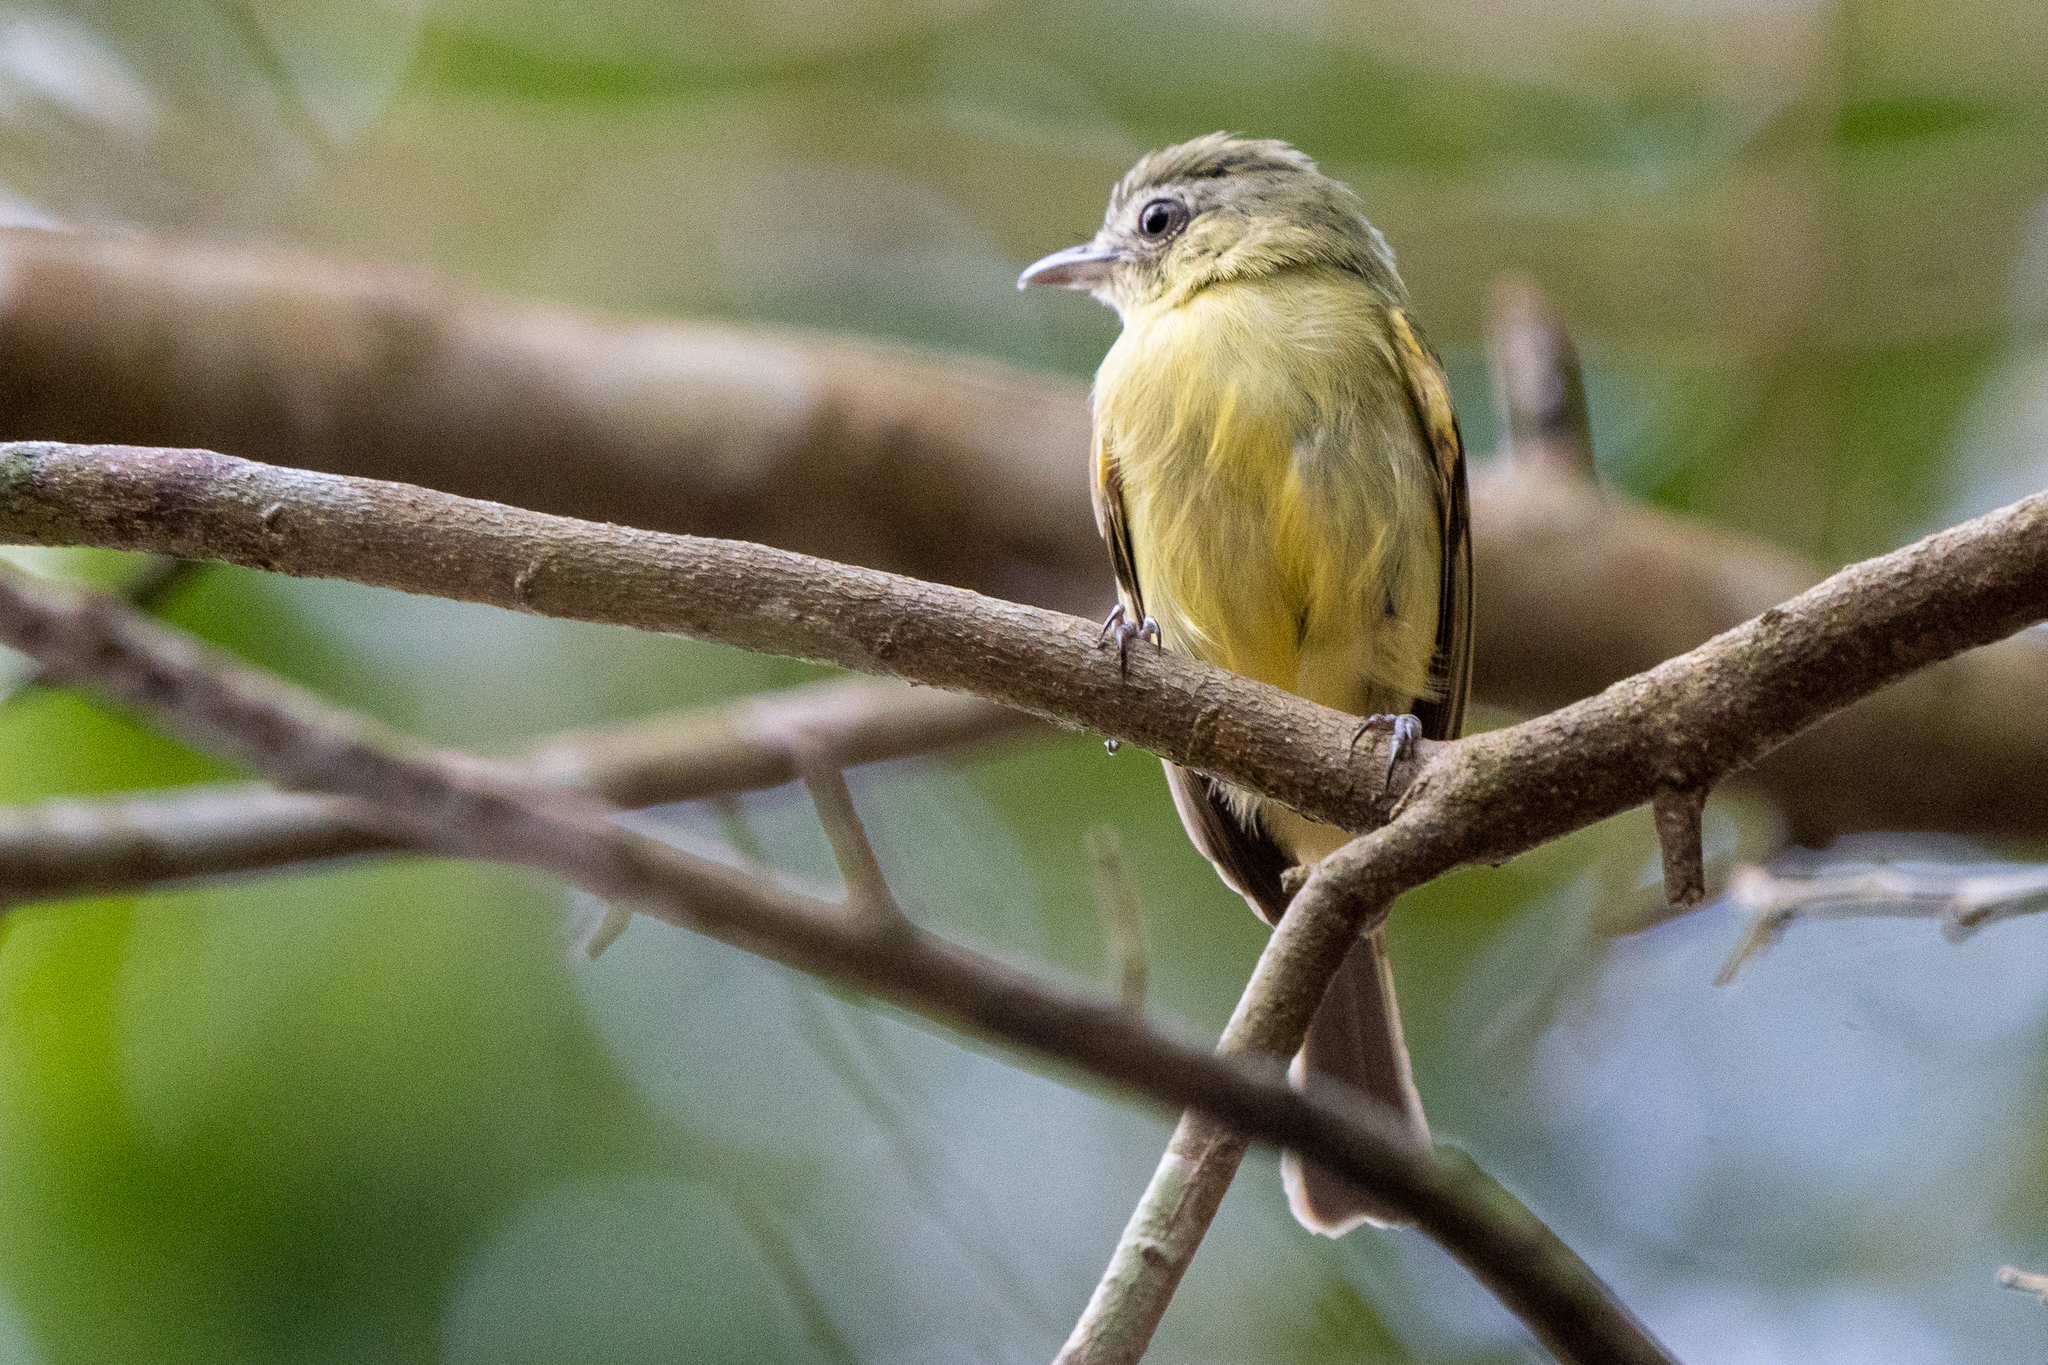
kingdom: Animalia
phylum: Chordata
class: Aves
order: Passeriformes
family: Tyrannidae
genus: Tolmomyias
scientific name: Tolmomyias sulphurescens
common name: Yellow-olive flycatcher
